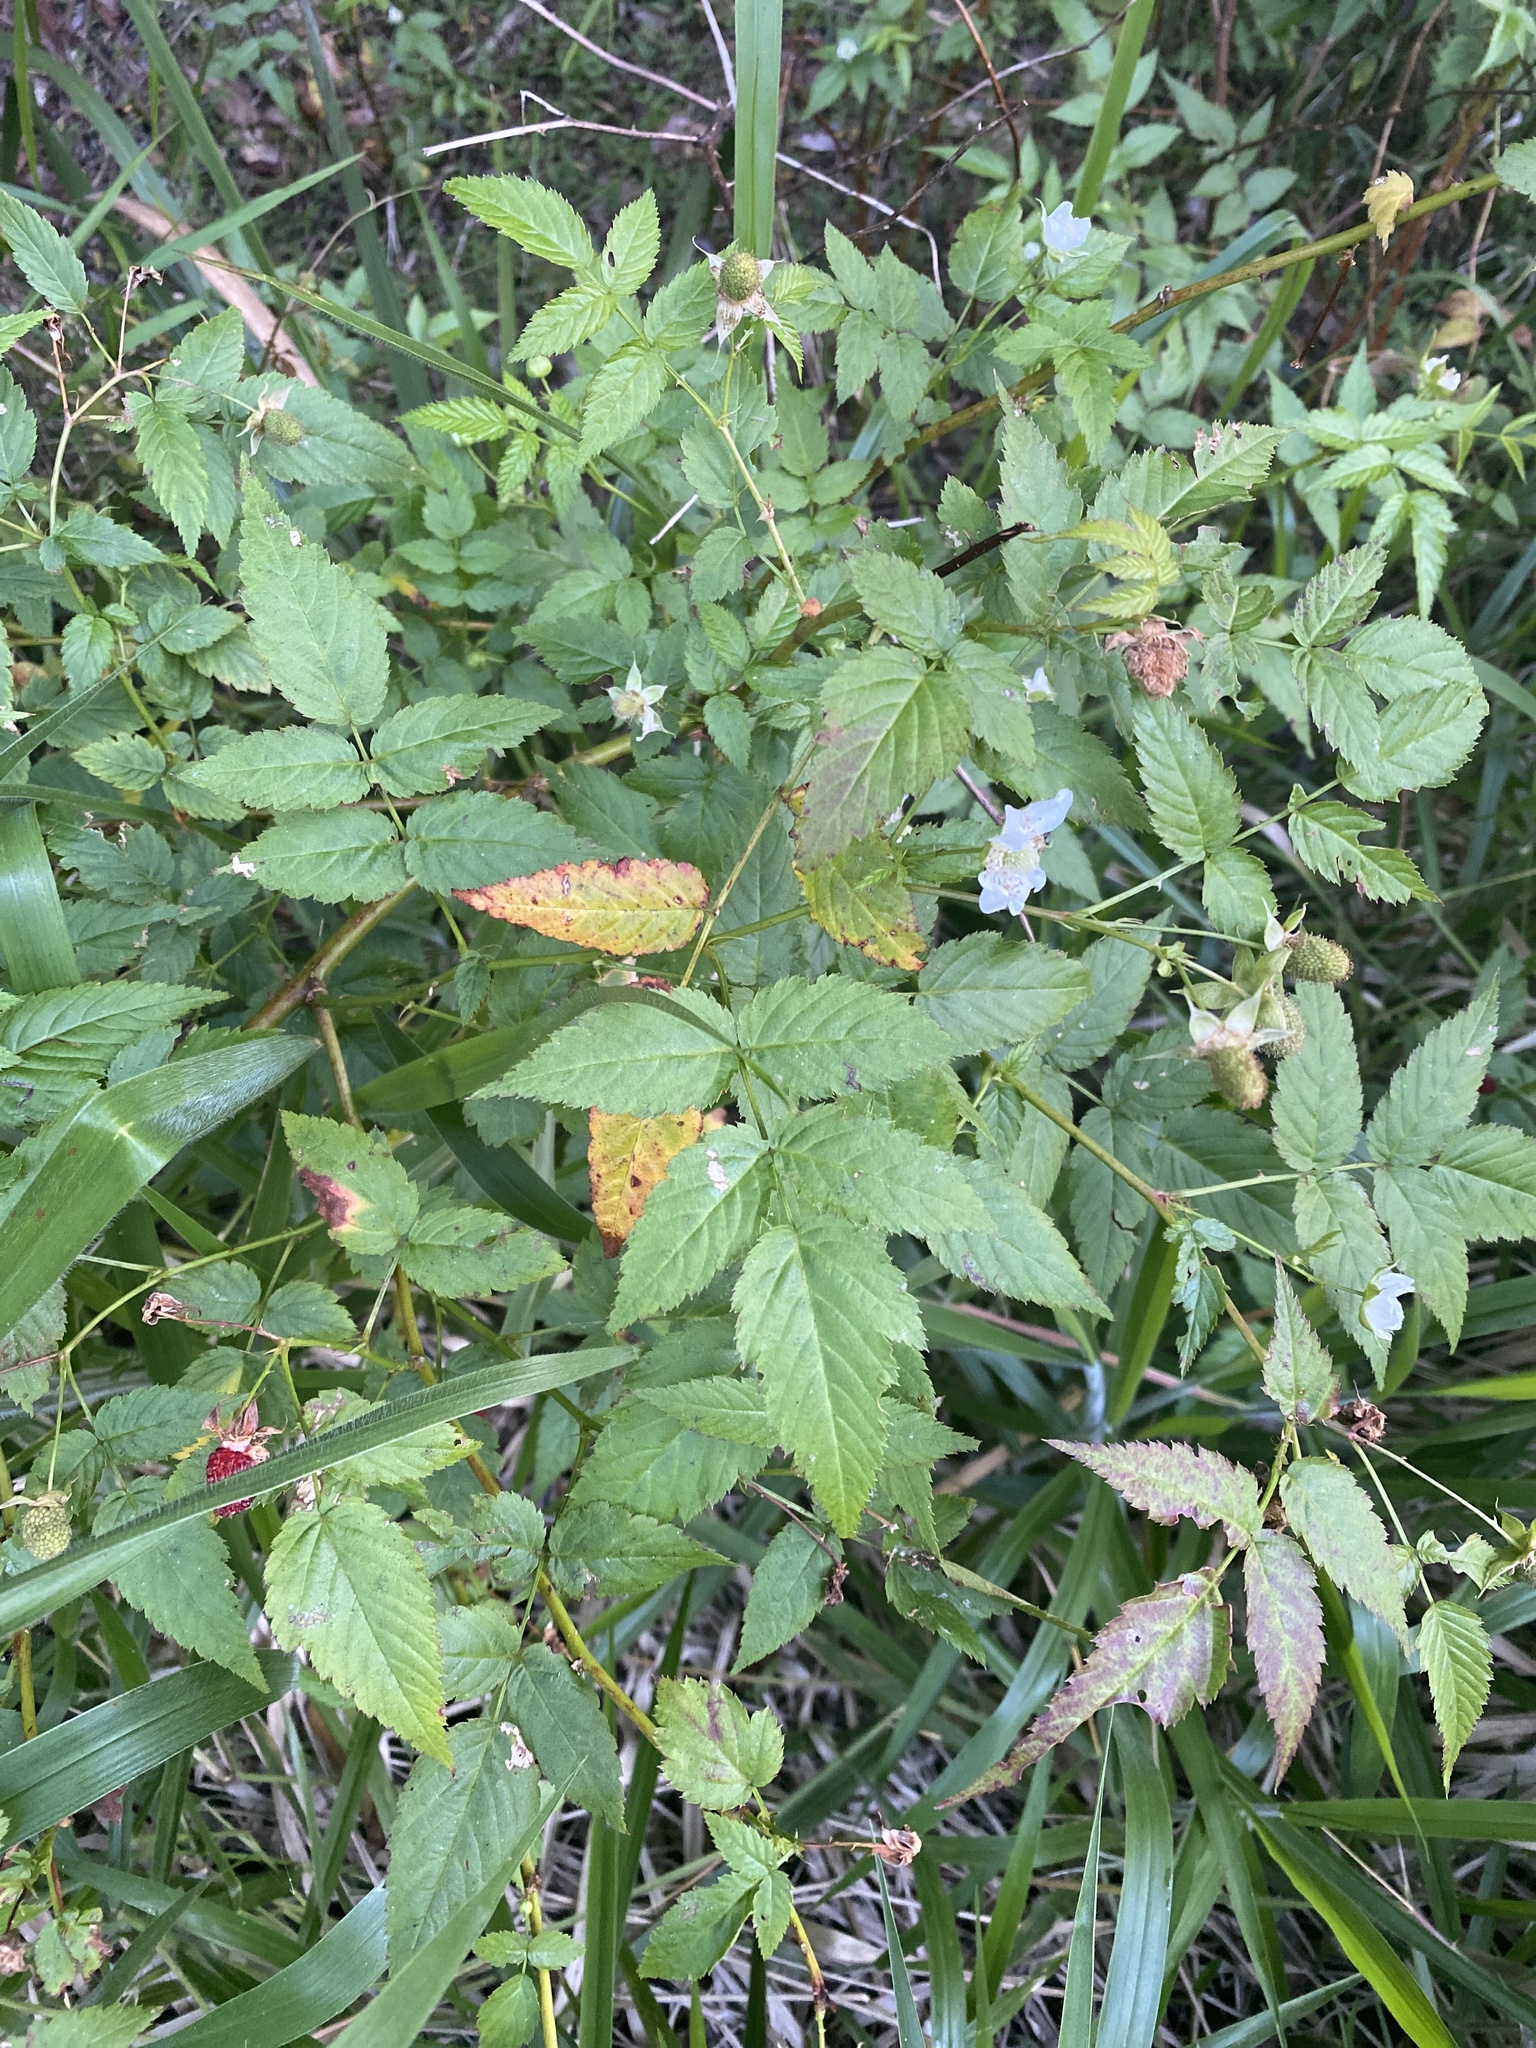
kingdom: Plantae
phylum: Tracheophyta
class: Magnoliopsida
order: Rosales
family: Rosaceae
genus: Rubus
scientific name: Rubus probus
